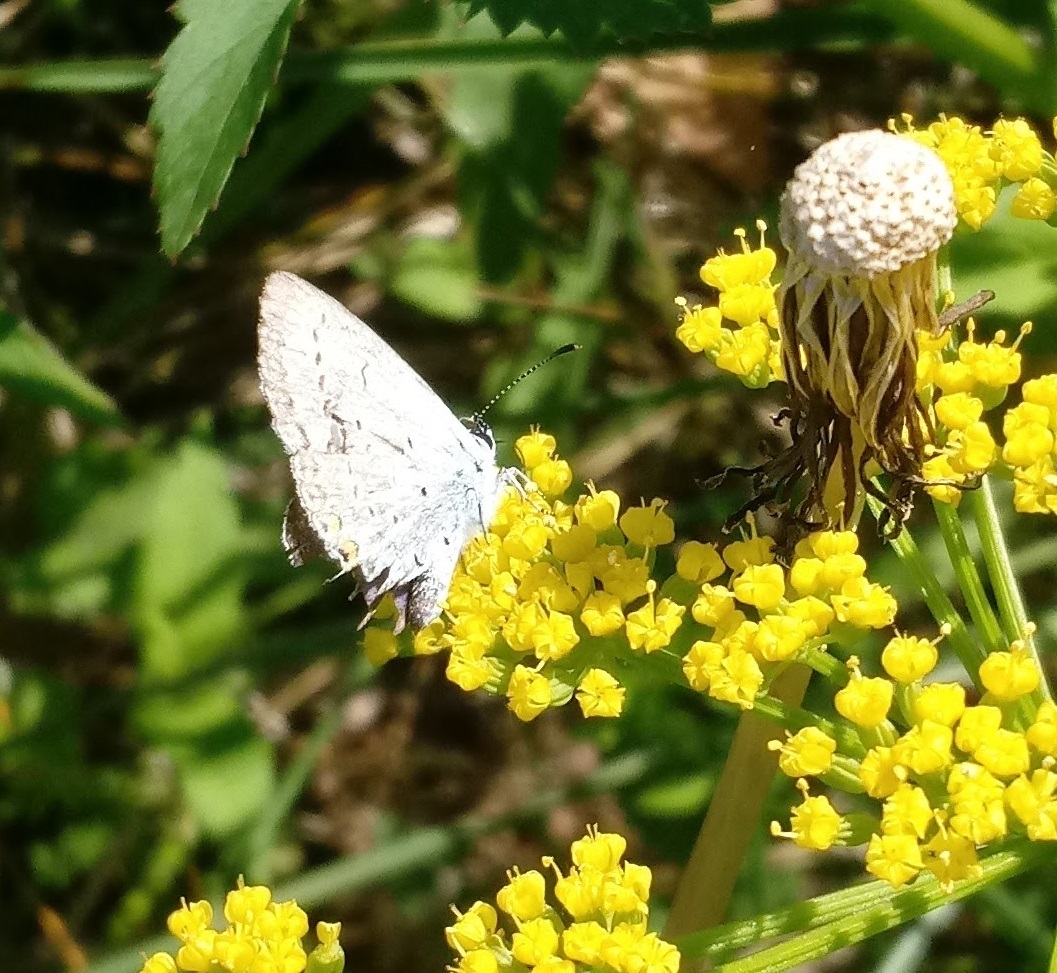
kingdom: Animalia
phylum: Arthropoda
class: Insecta
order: Lepidoptera
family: Lycaenidae
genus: Elkalyce
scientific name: Elkalyce comyntas
